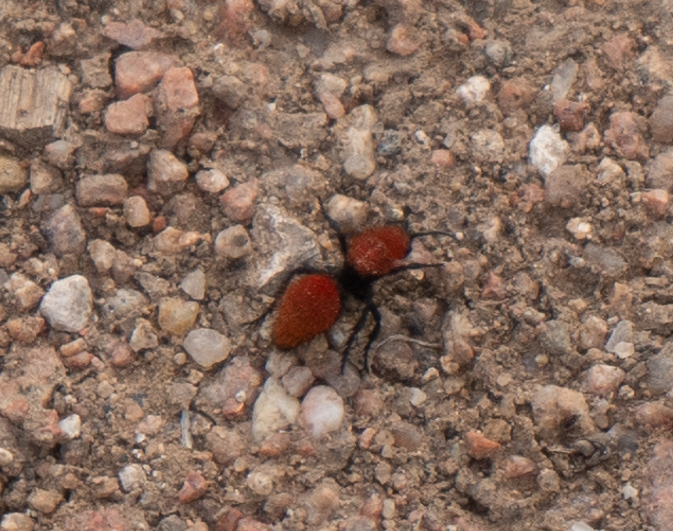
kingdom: Animalia
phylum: Arthropoda
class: Insecta
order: Hymenoptera
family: Mutillidae
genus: Dasymutilla
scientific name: Dasymutilla vestita
